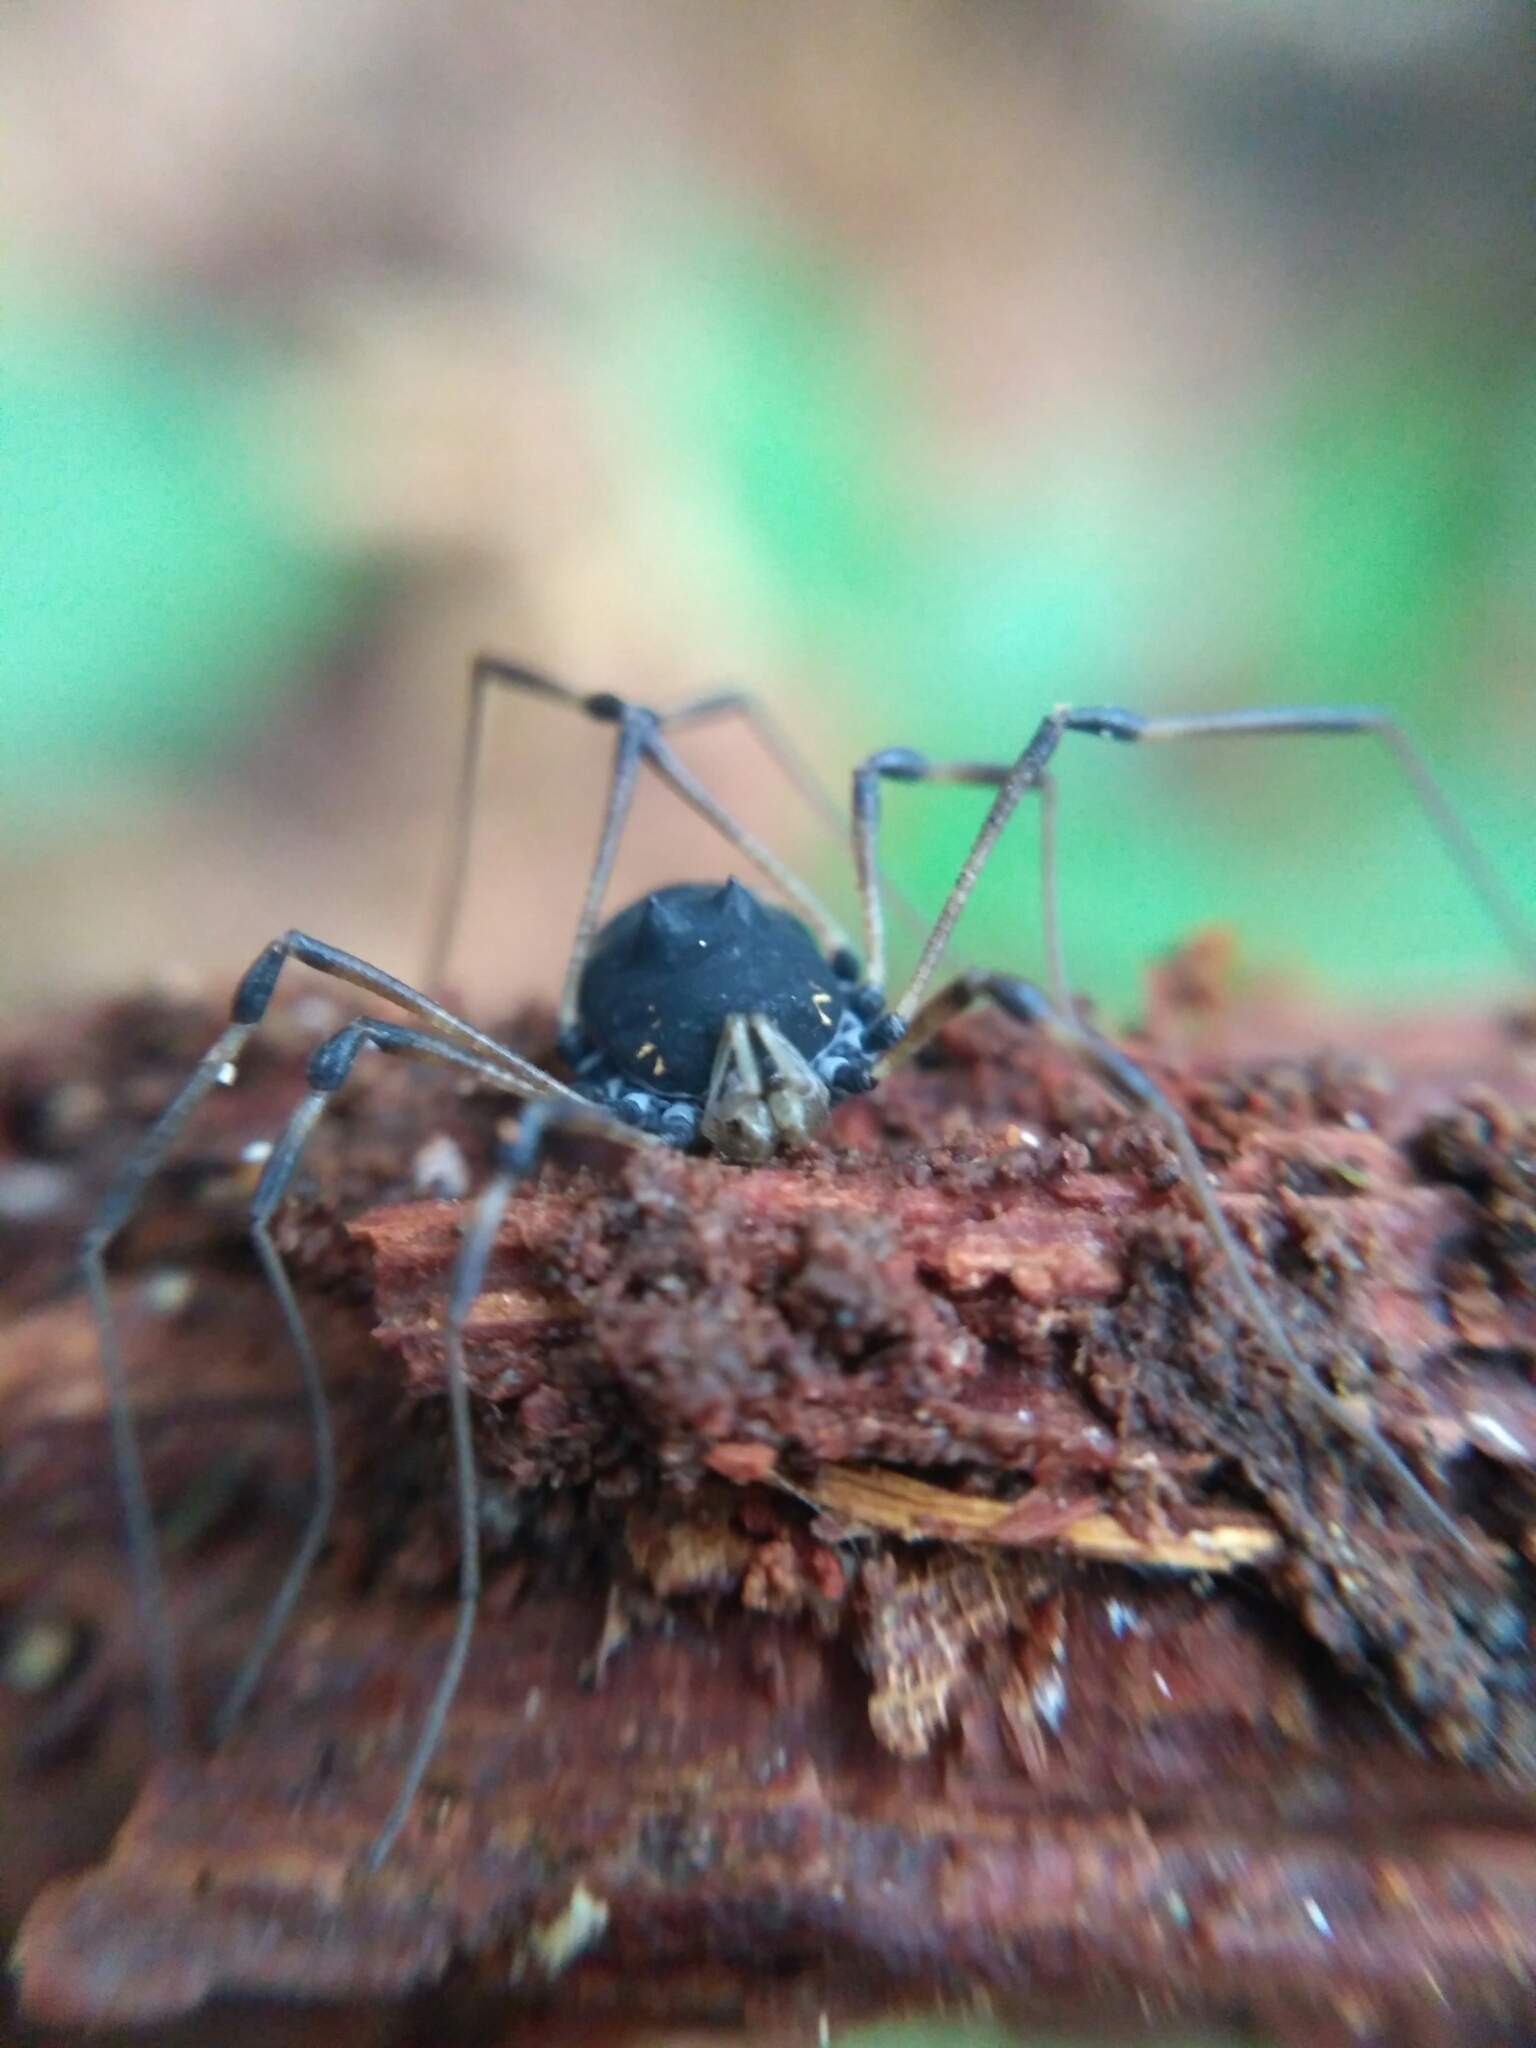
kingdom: Animalia
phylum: Arthropoda
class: Arachnida
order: Opiliones
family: Nemastomatidae
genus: Paranemastoma
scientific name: Paranemastoma kochii
